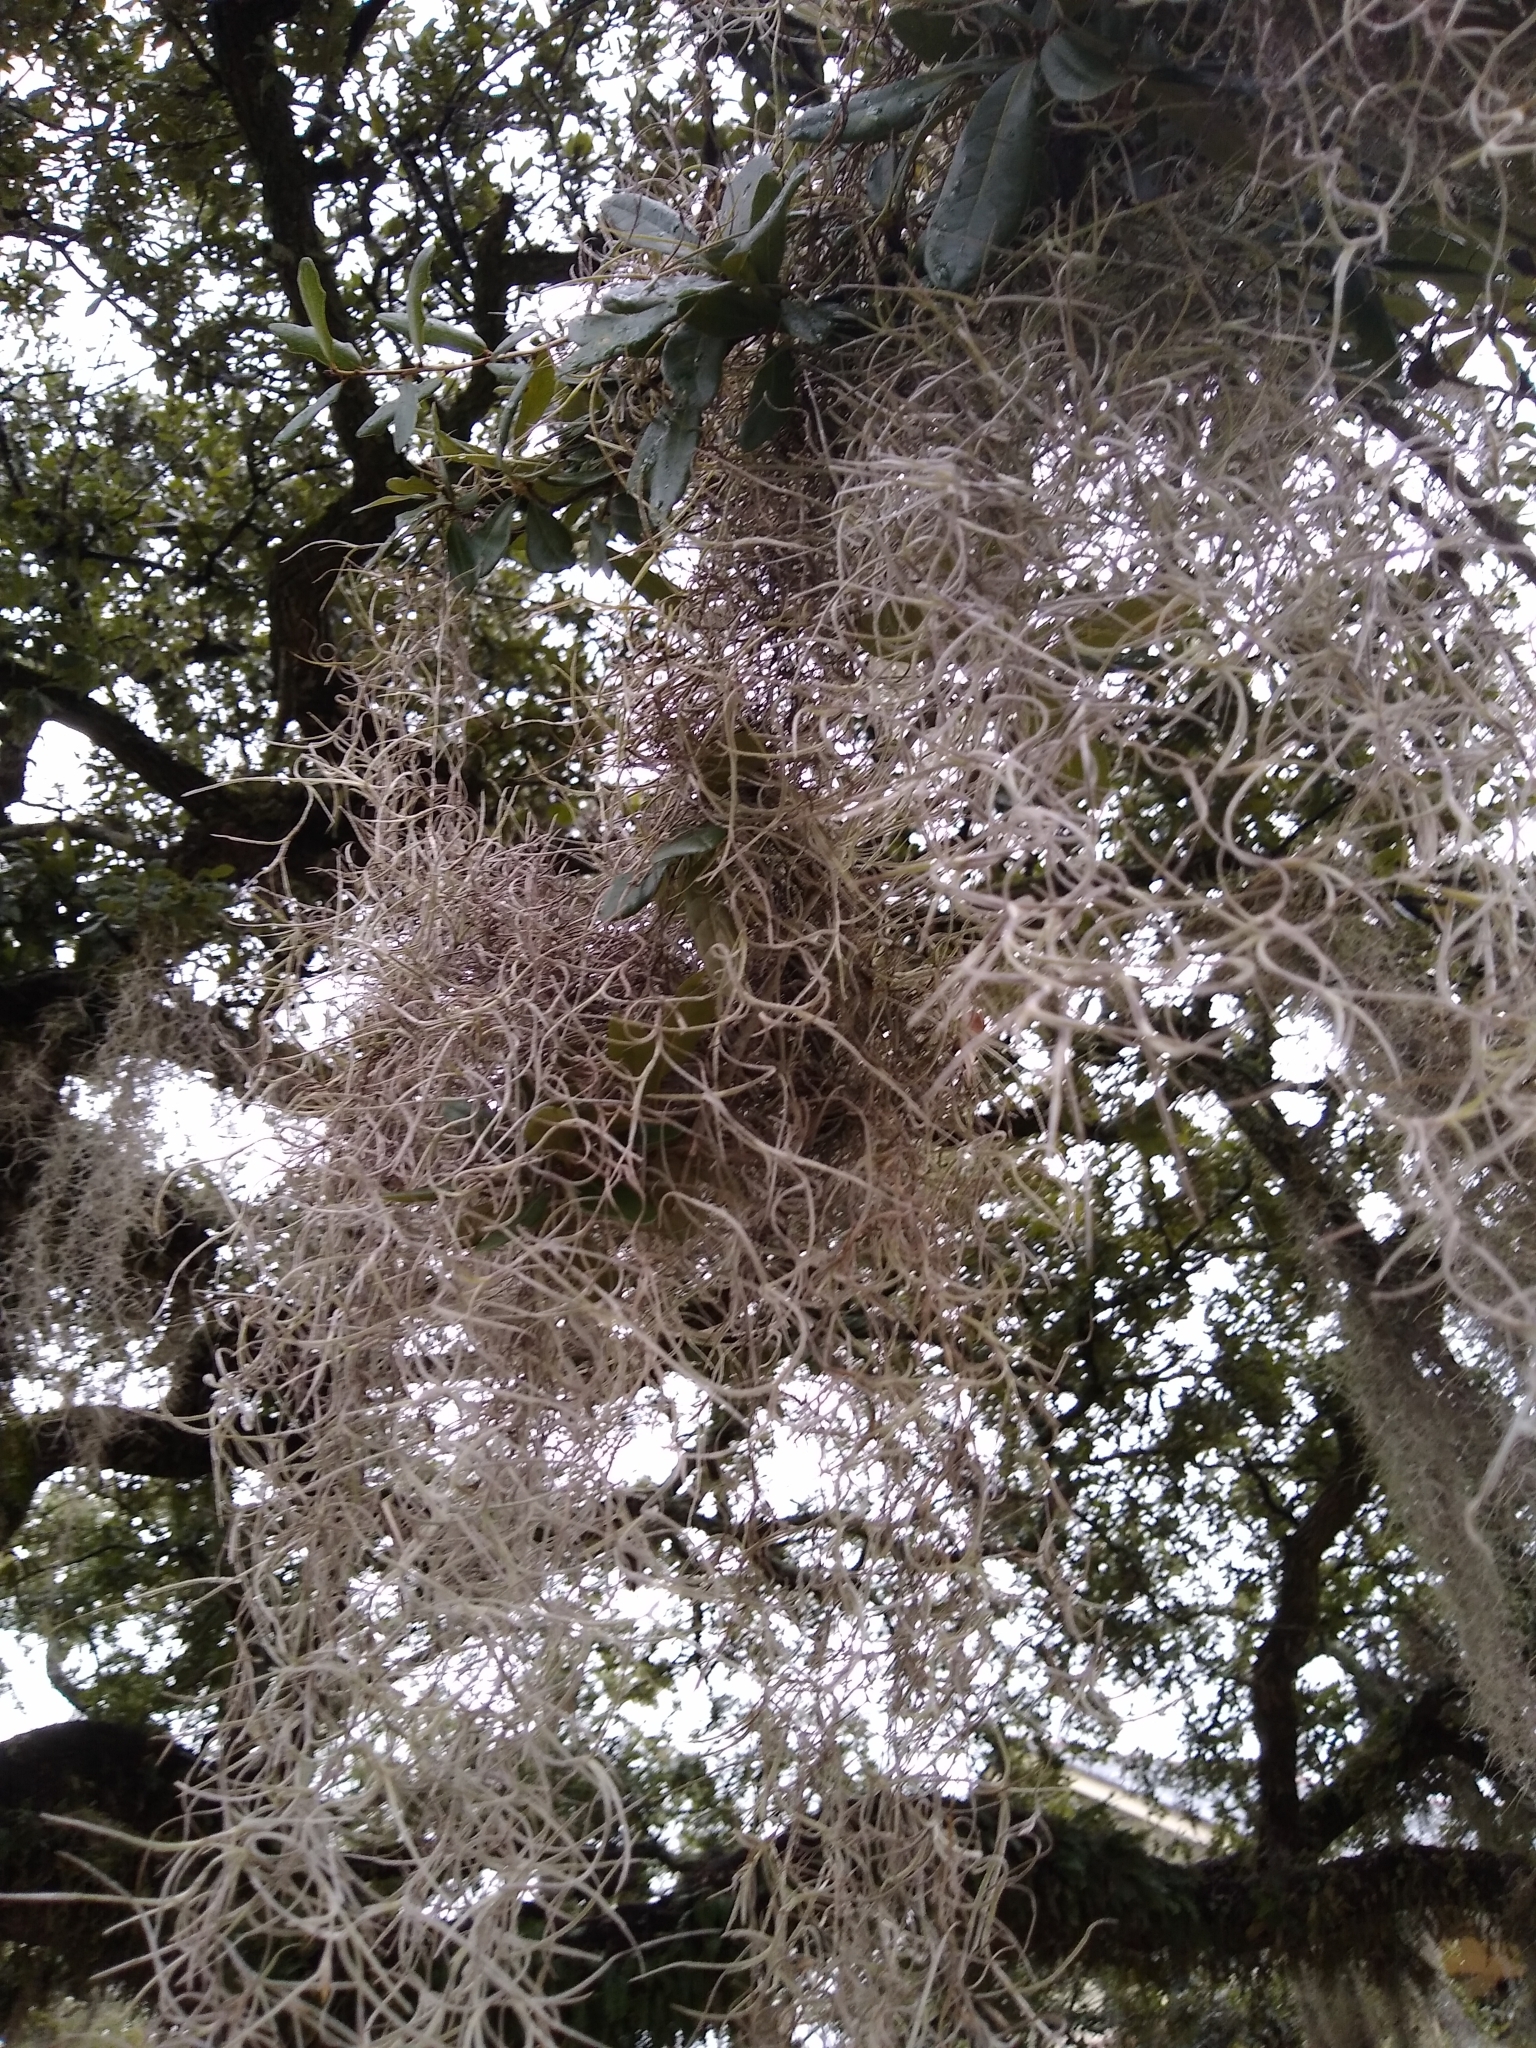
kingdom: Plantae
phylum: Tracheophyta
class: Liliopsida
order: Poales
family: Bromeliaceae
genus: Tillandsia
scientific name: Tillandsia usneoides
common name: Spanish moss
